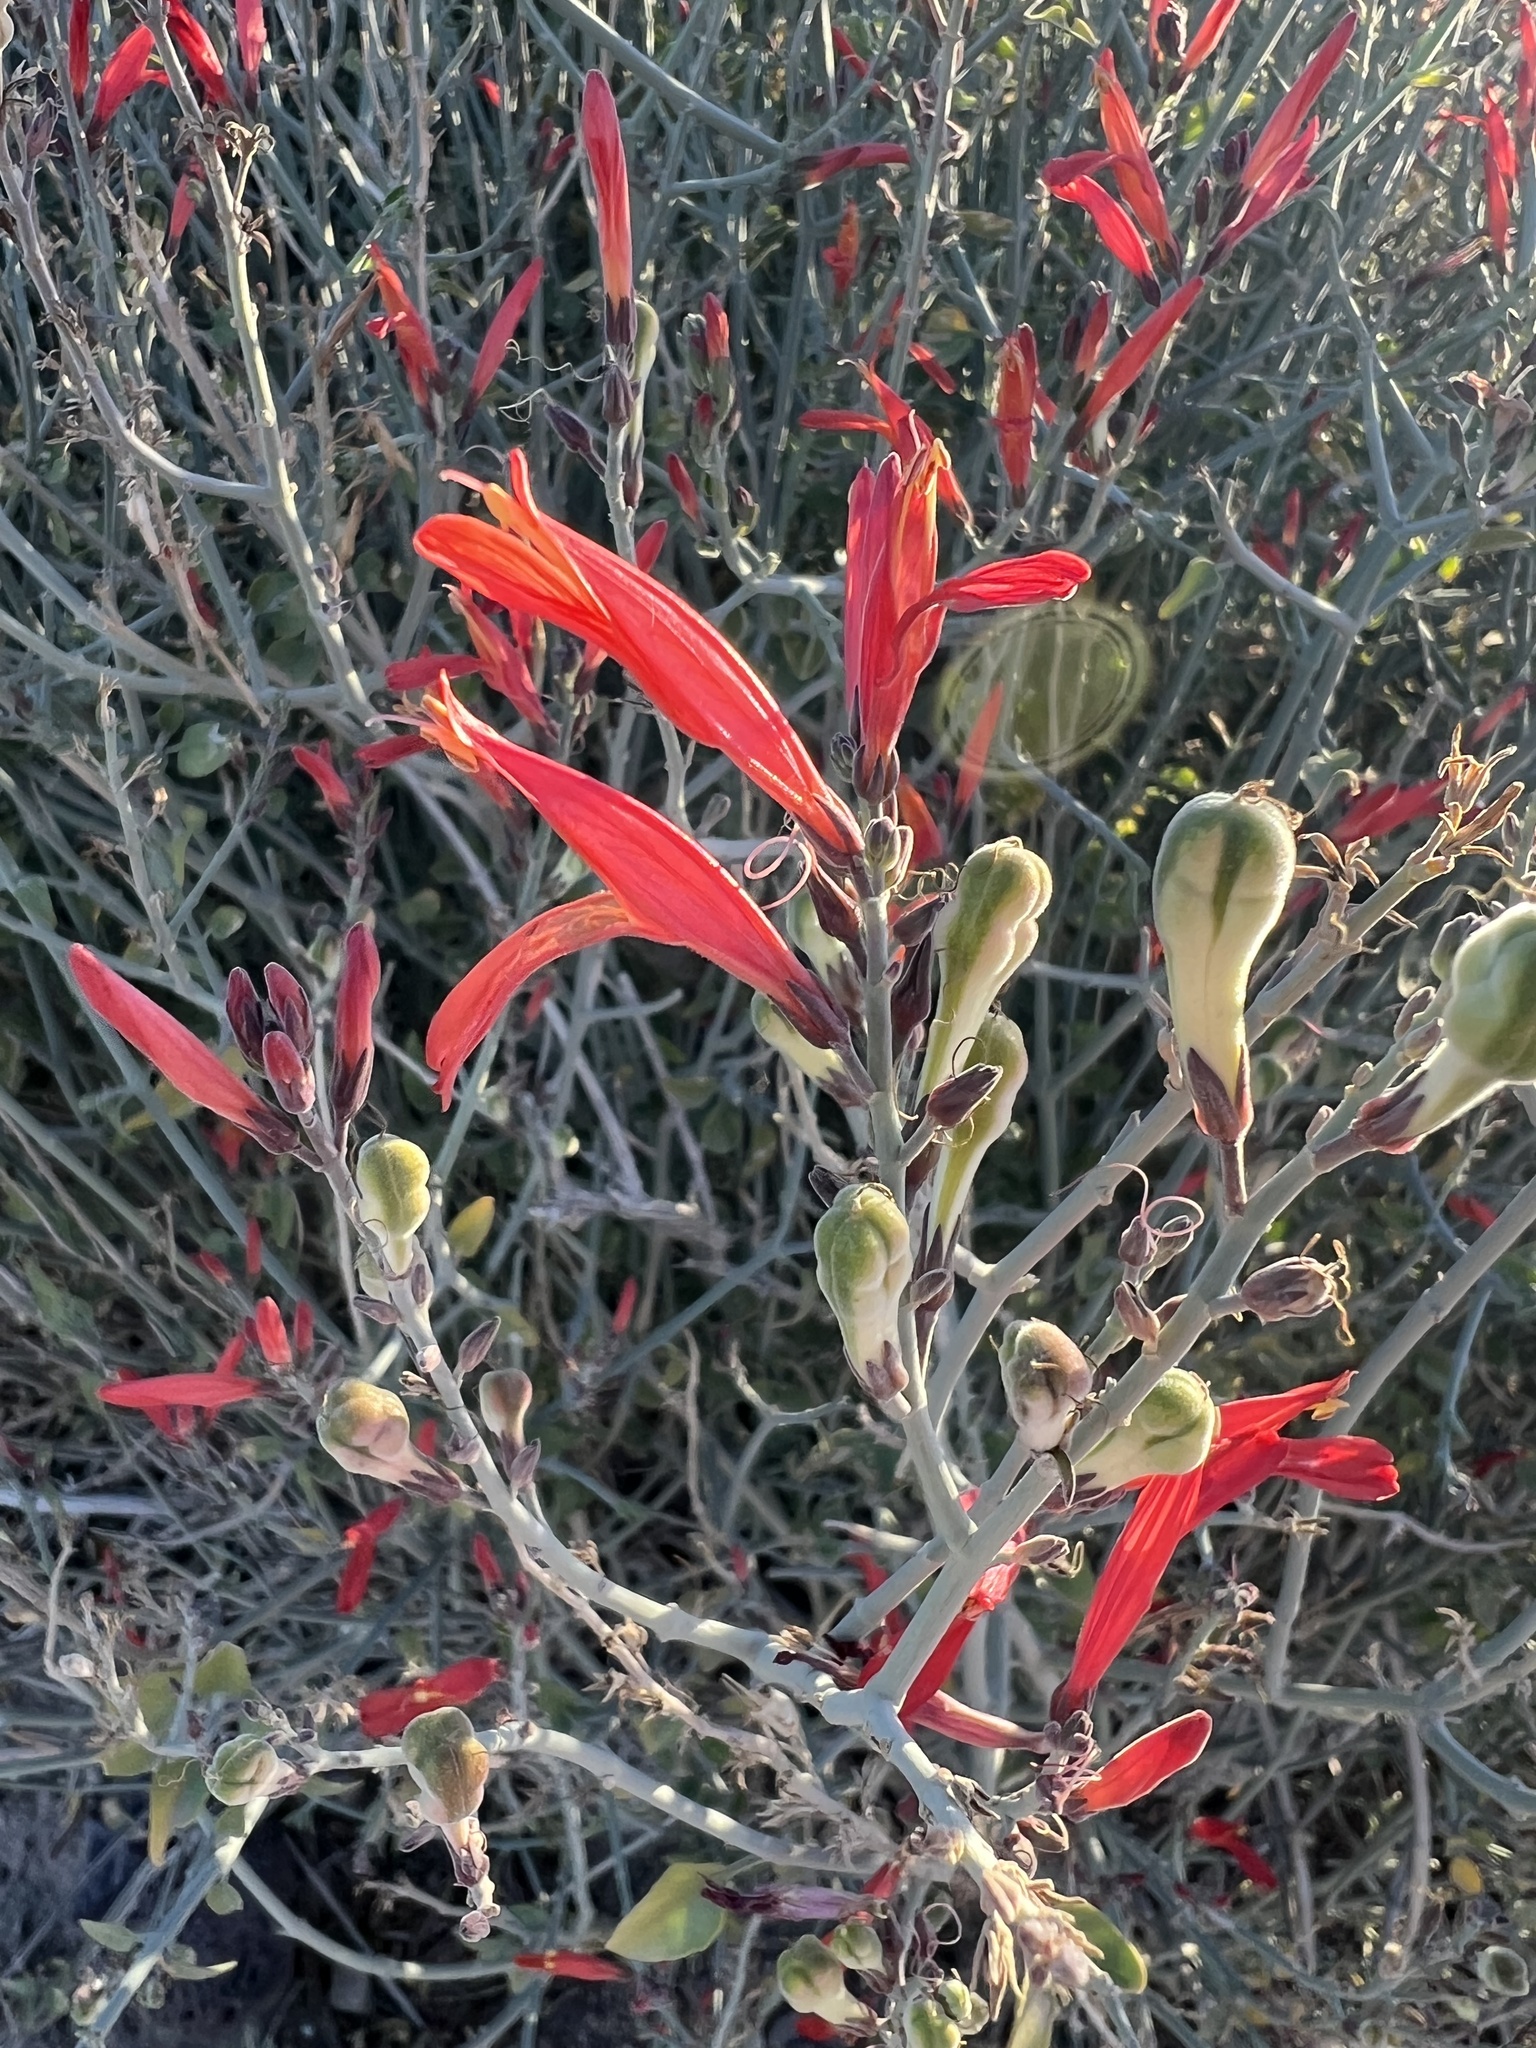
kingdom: Plantae
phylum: Tracheophyta
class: Magnoliopsida
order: Lamiales
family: Acanthaceae
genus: Justicia
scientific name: Justicia californica
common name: Chuparosa-honeysuckle
